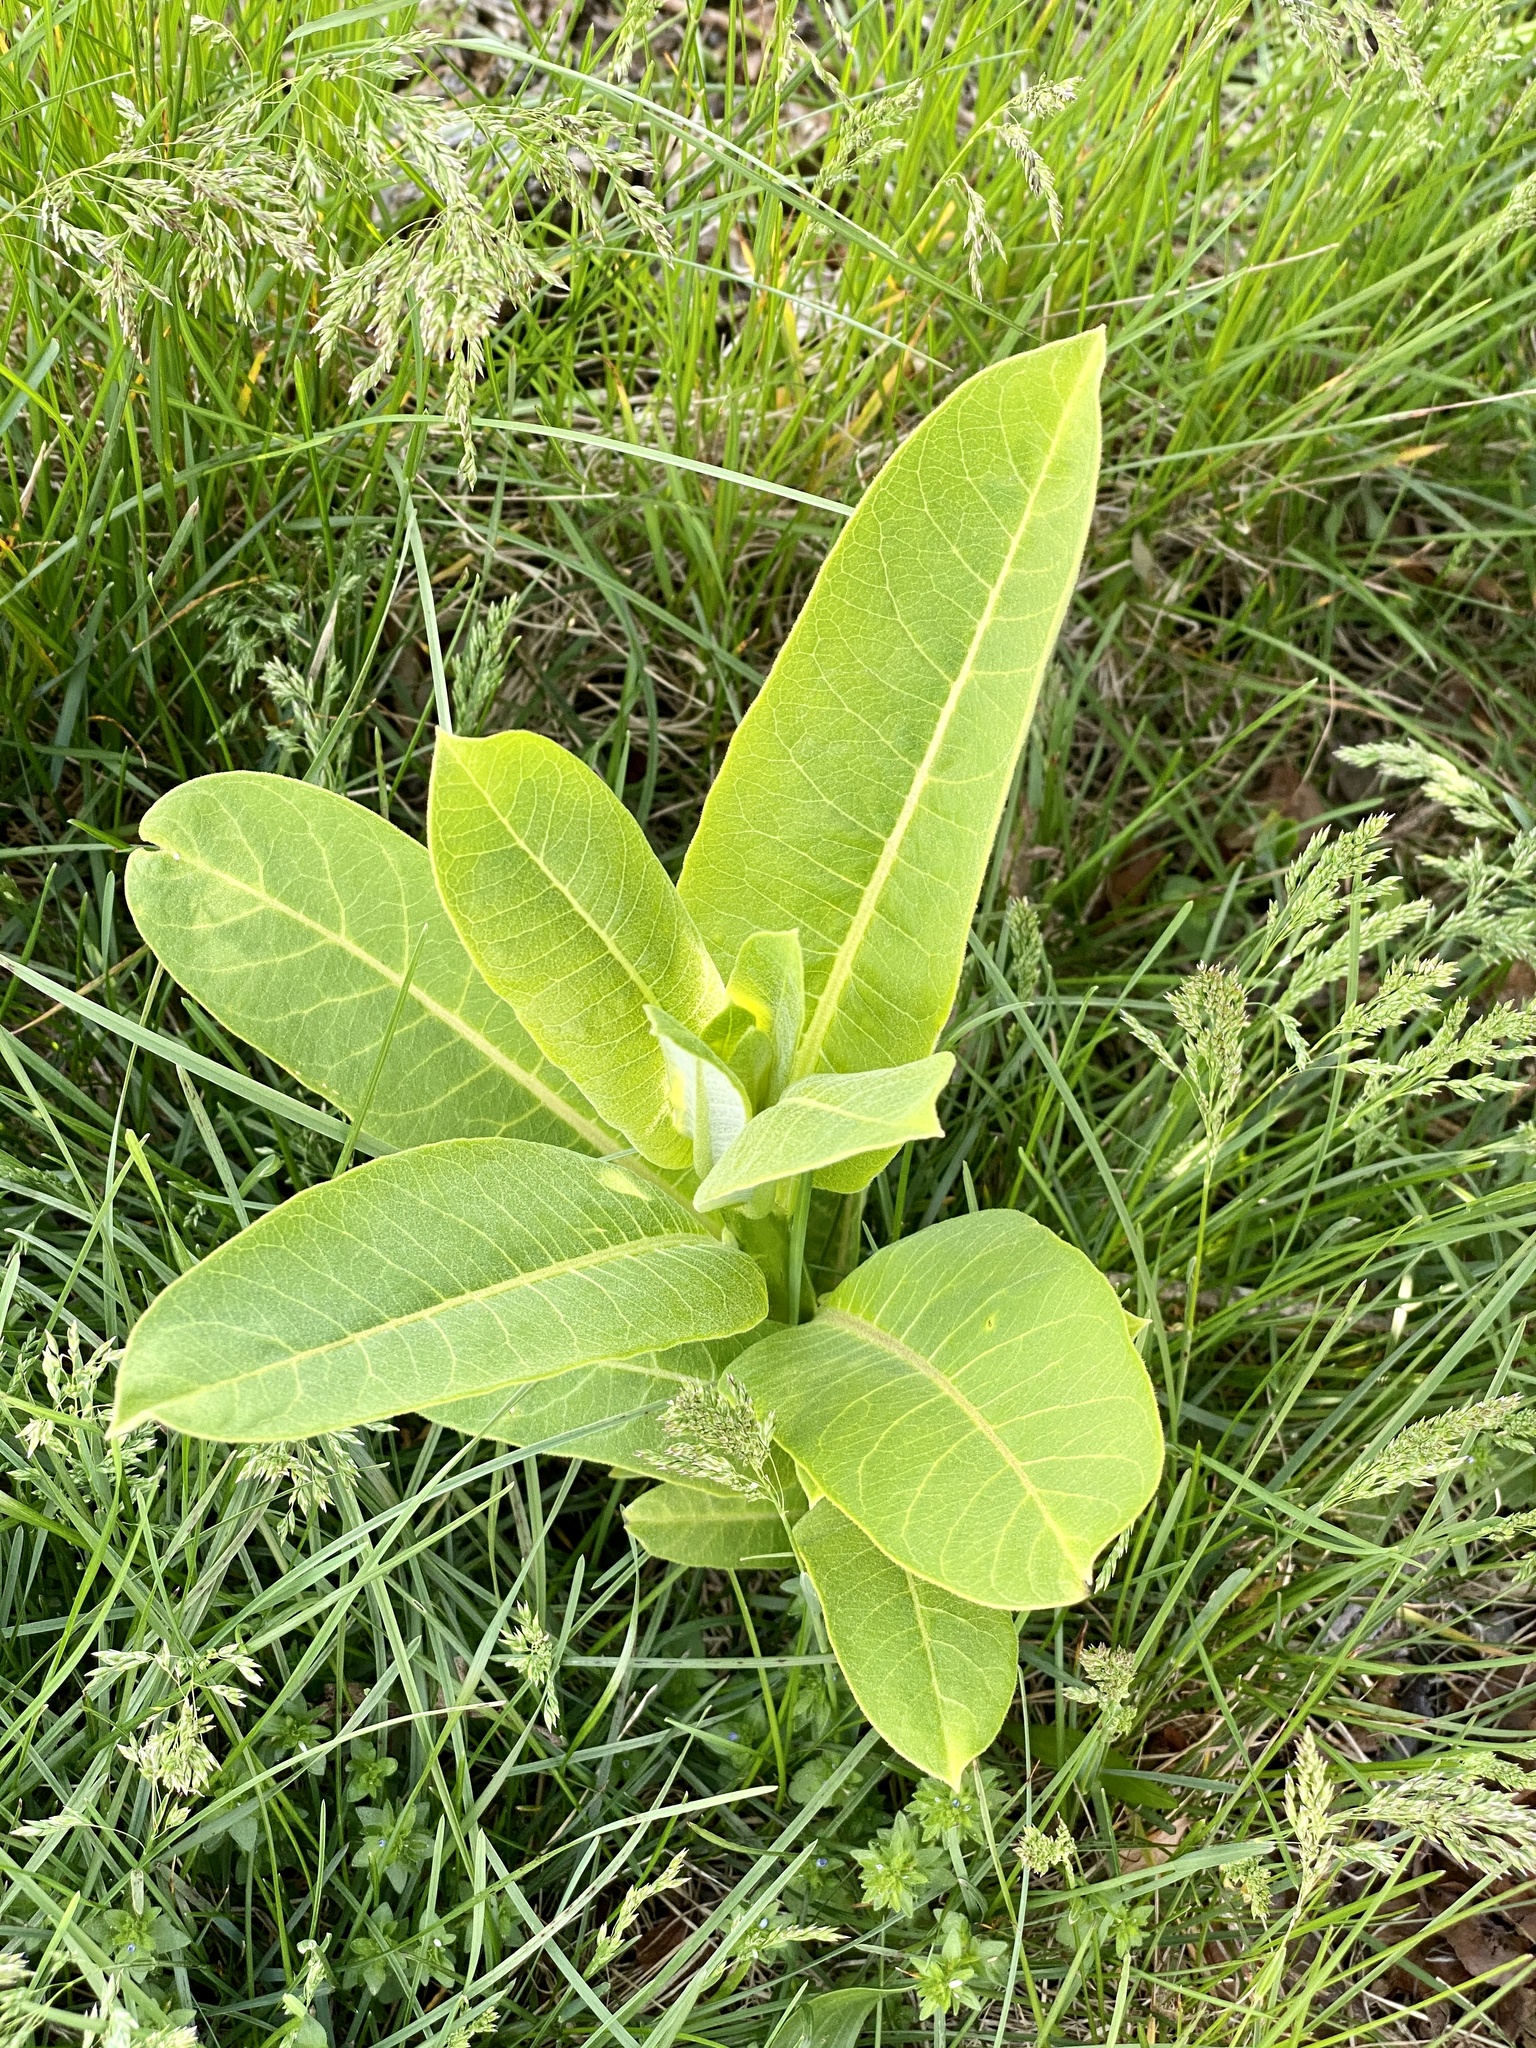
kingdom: Plantae
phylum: Tracheophyta
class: Magnoliopsida
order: Gentianales
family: Apocynaceae
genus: Asclepias
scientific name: Asclepias syriaca
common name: Common milkweed
